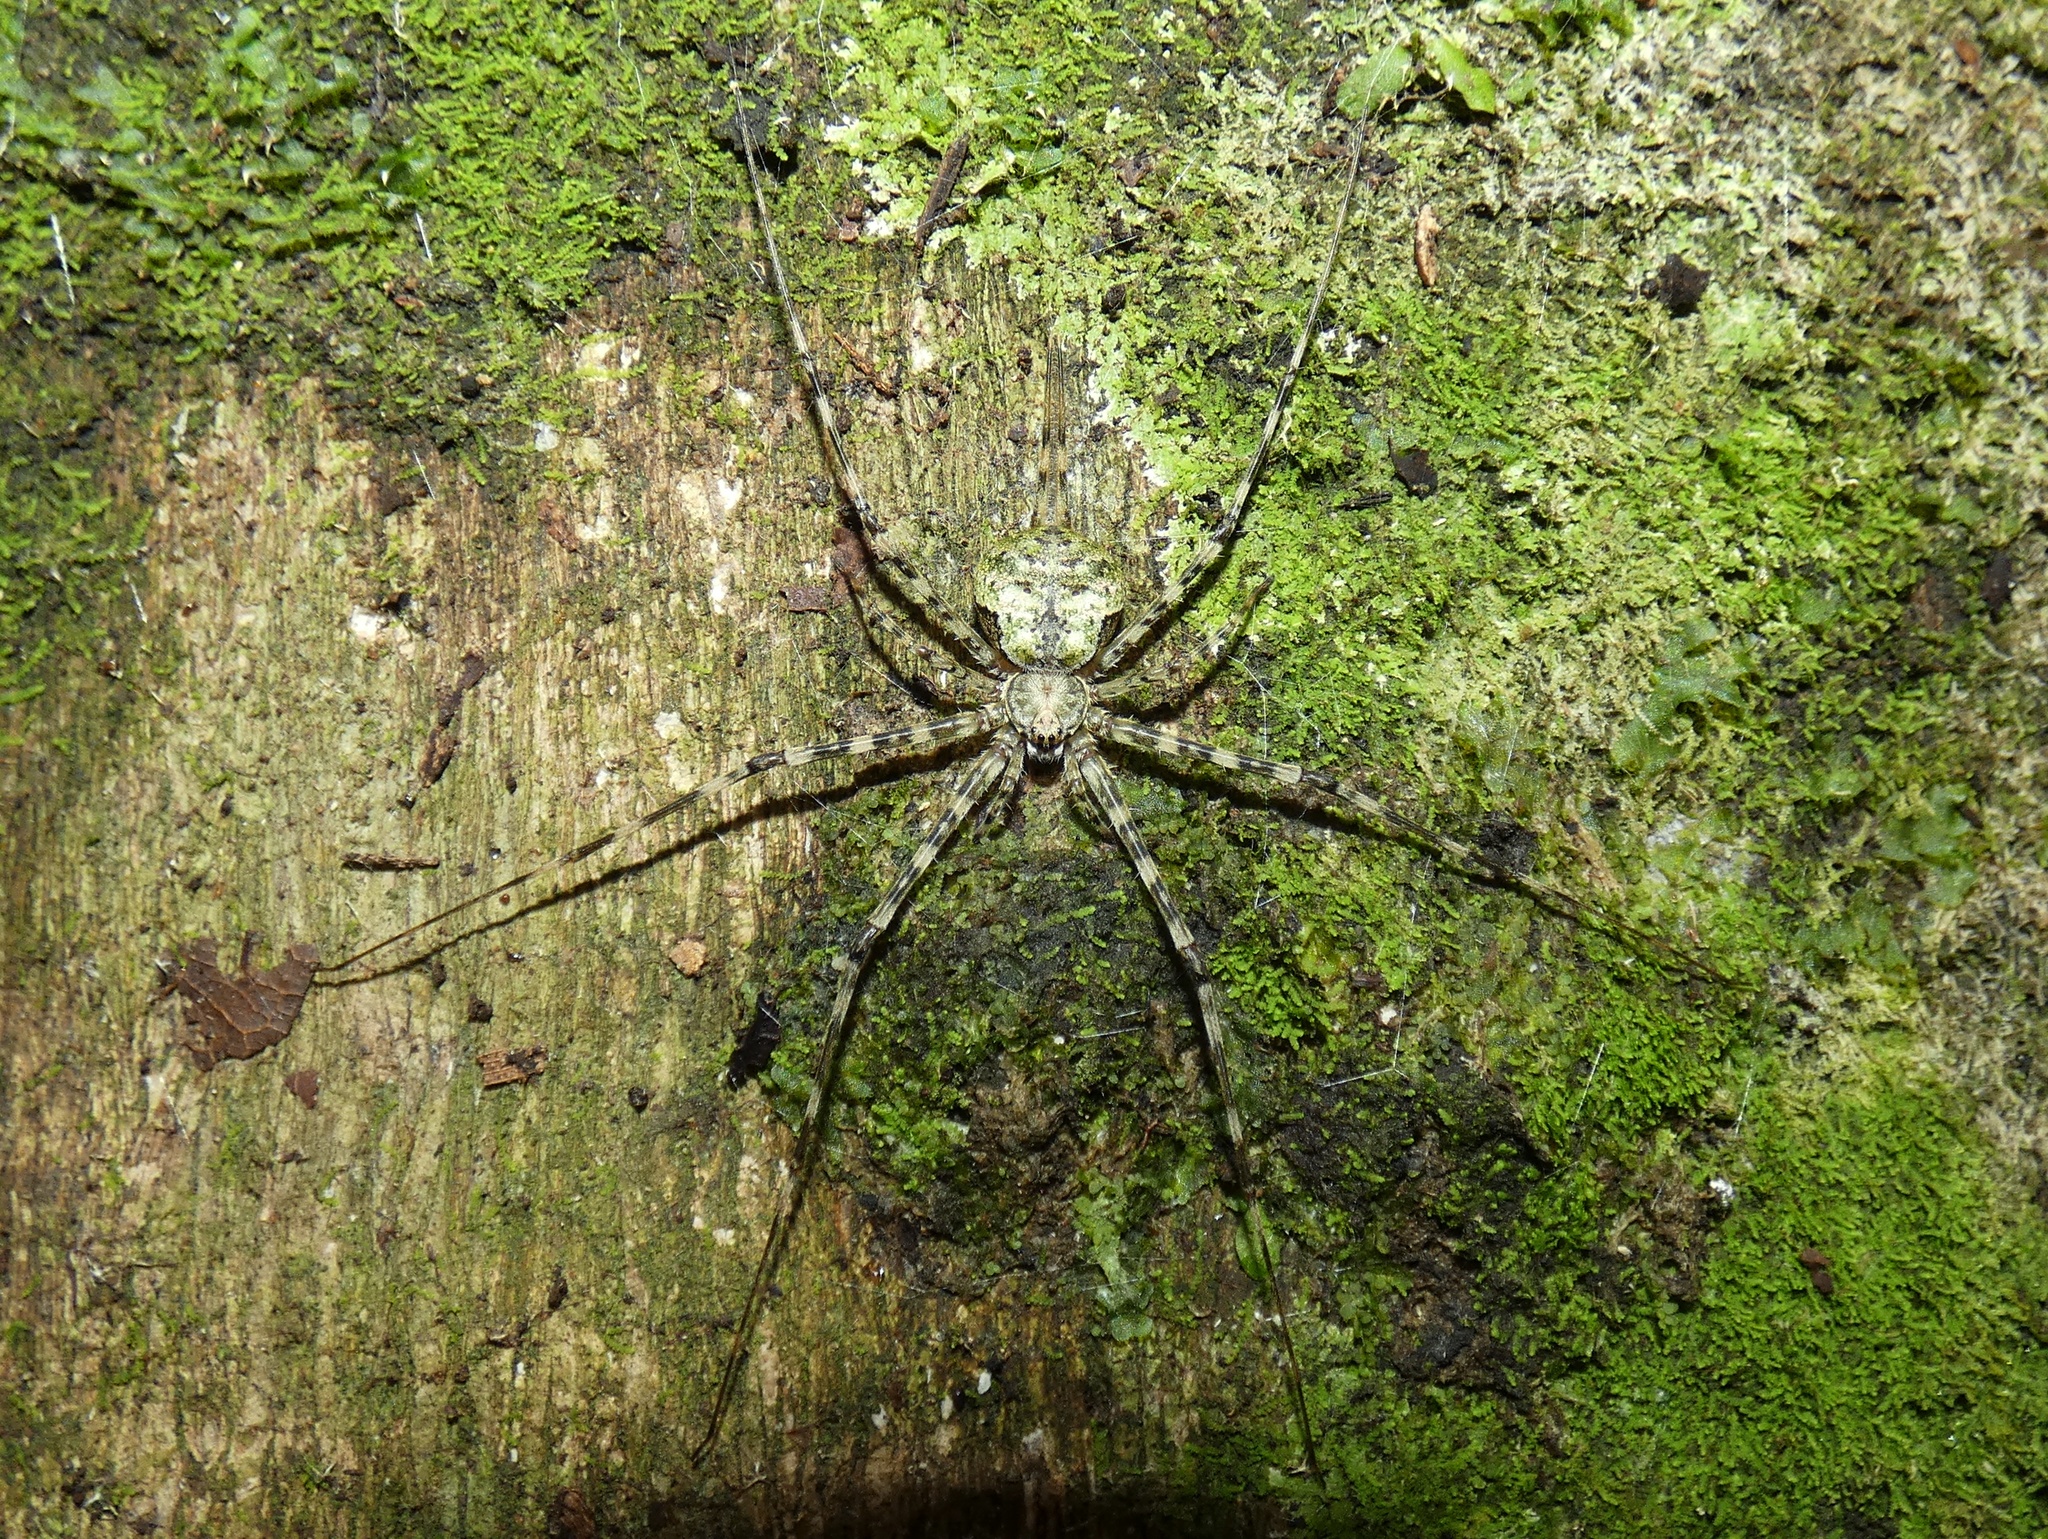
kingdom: Animalia
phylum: Arthropoda
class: Arachnida
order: Araneae
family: Hersiliidae
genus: Neotama
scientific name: Neotama mexicana
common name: Tree trunk spiders
